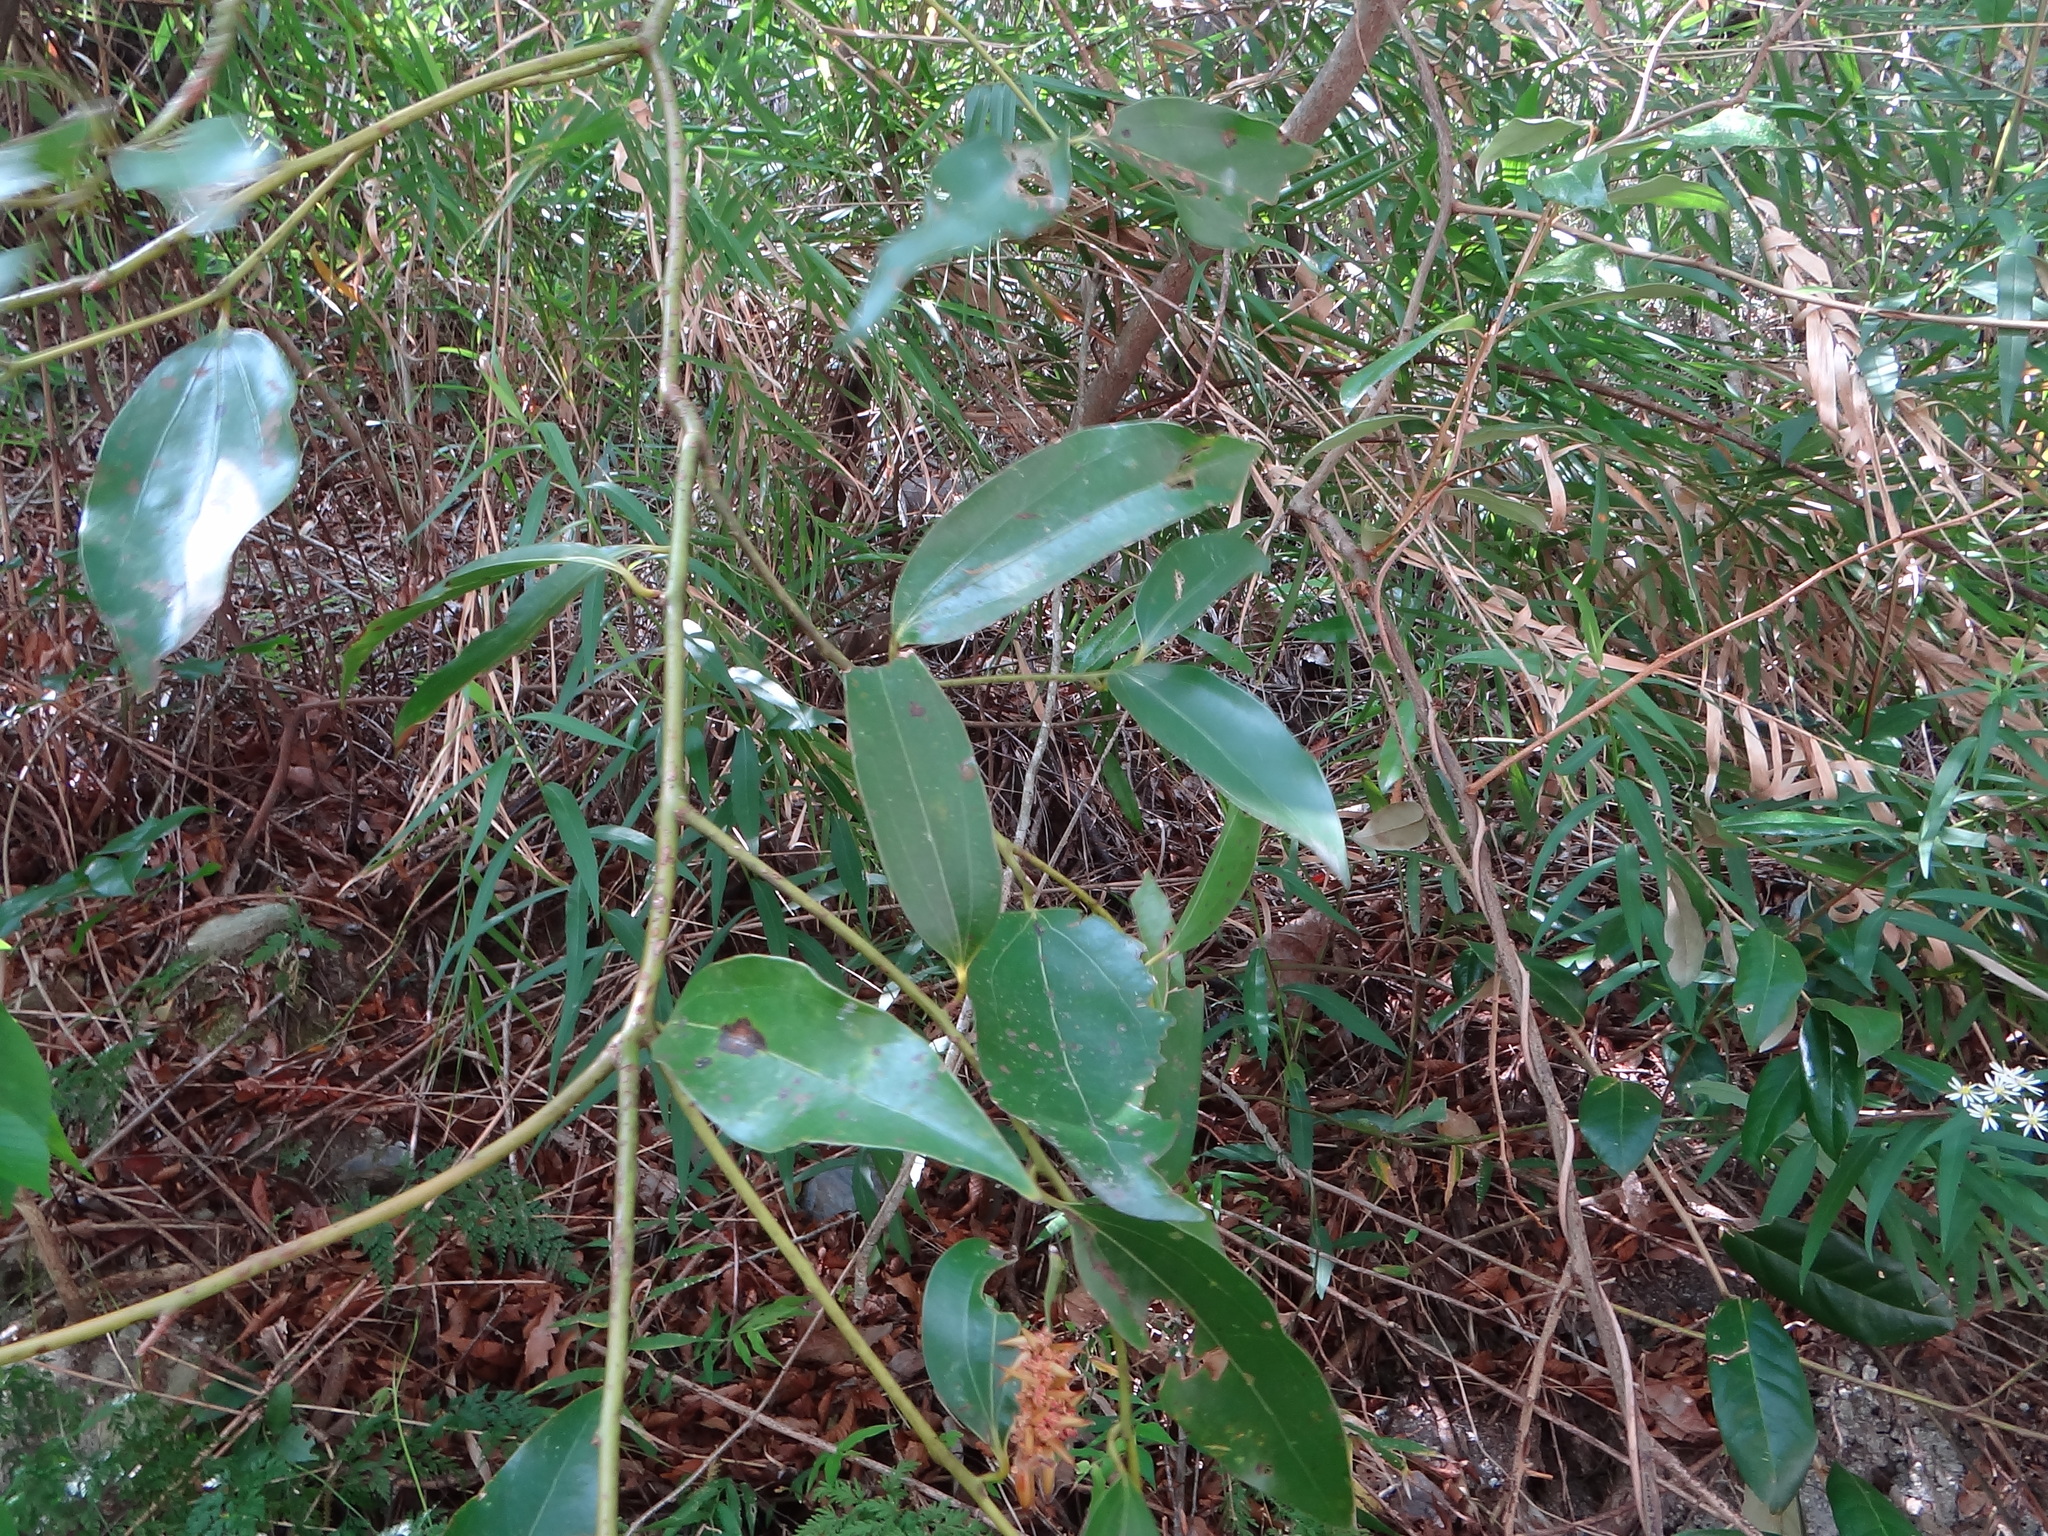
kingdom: Plantae
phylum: Tracheophyta
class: Magnoliopsida
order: Laurales
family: Lauraceae
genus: Cinnamomum
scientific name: Cinnamomum chekiangense
